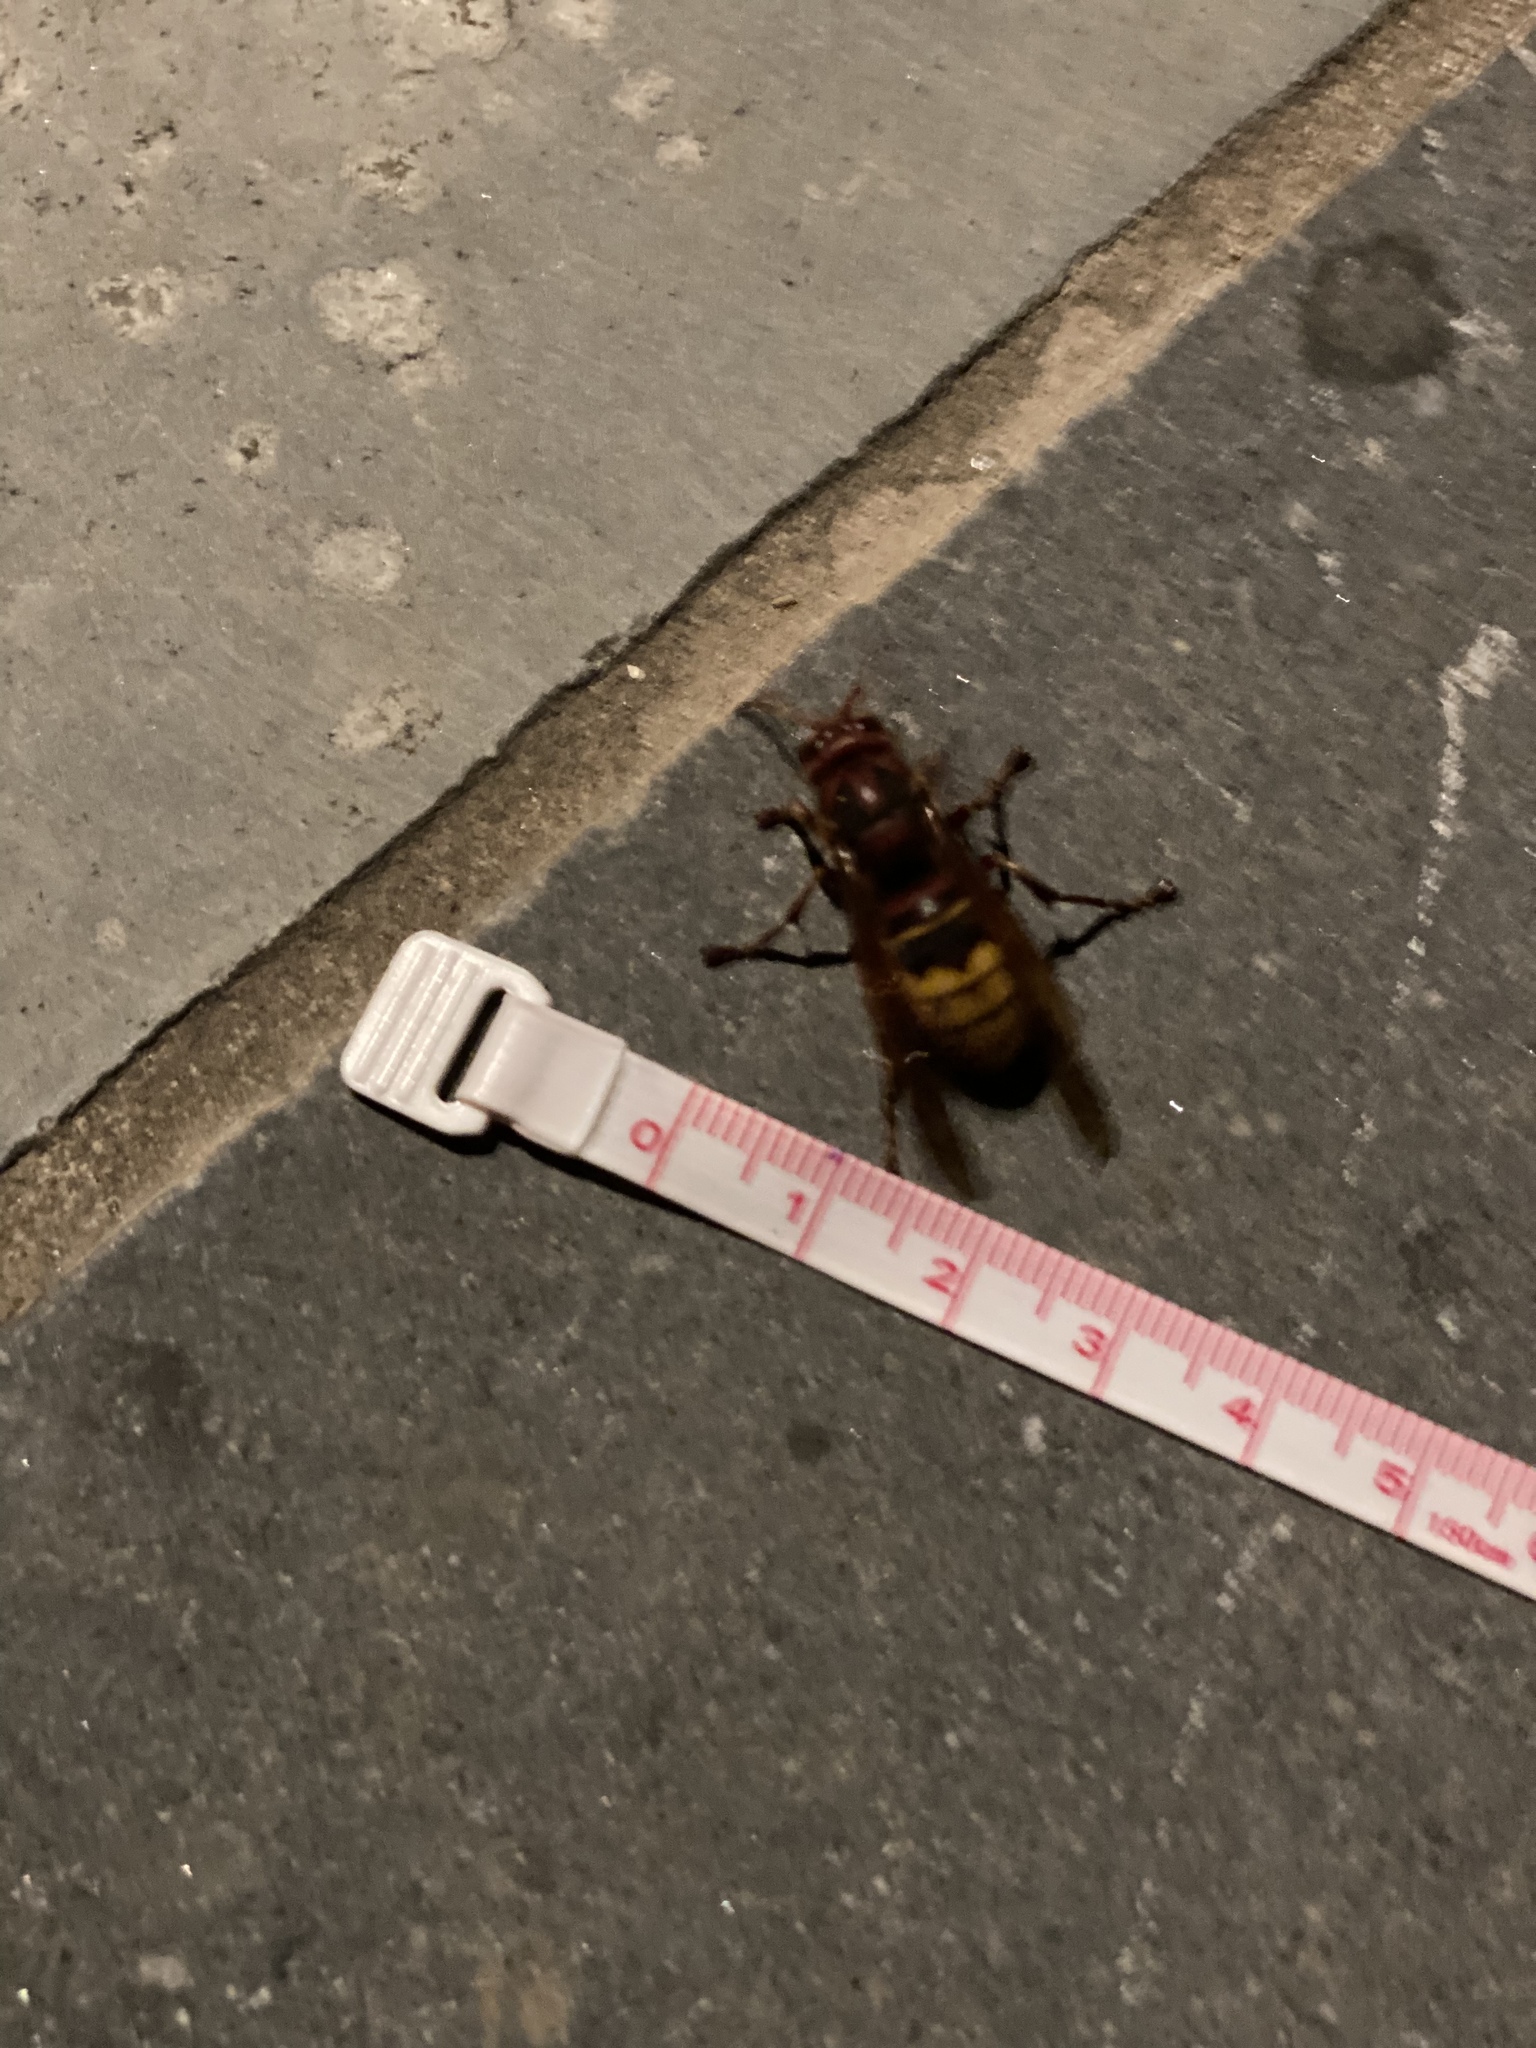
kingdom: Animalia
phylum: Arthropoda
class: Insecta
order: Hymenoptera
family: Vespidae
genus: Vespa
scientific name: Vespa crabro
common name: Hornet
